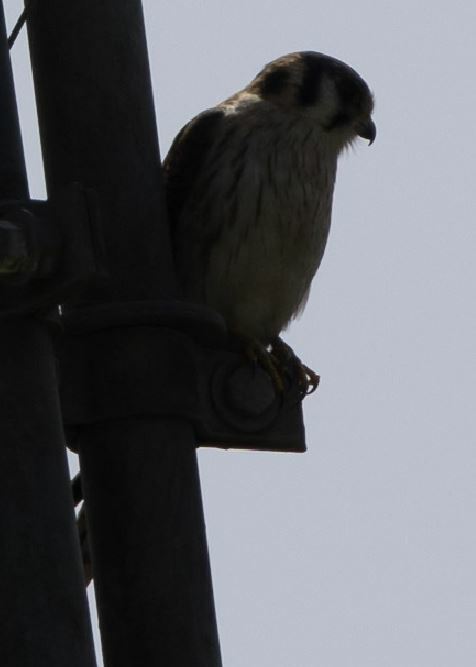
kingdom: Animalia
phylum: Chordata
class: Aves
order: Falconiformes
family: Falconidae
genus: Falco
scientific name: Falco sparverius
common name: American kestrel
